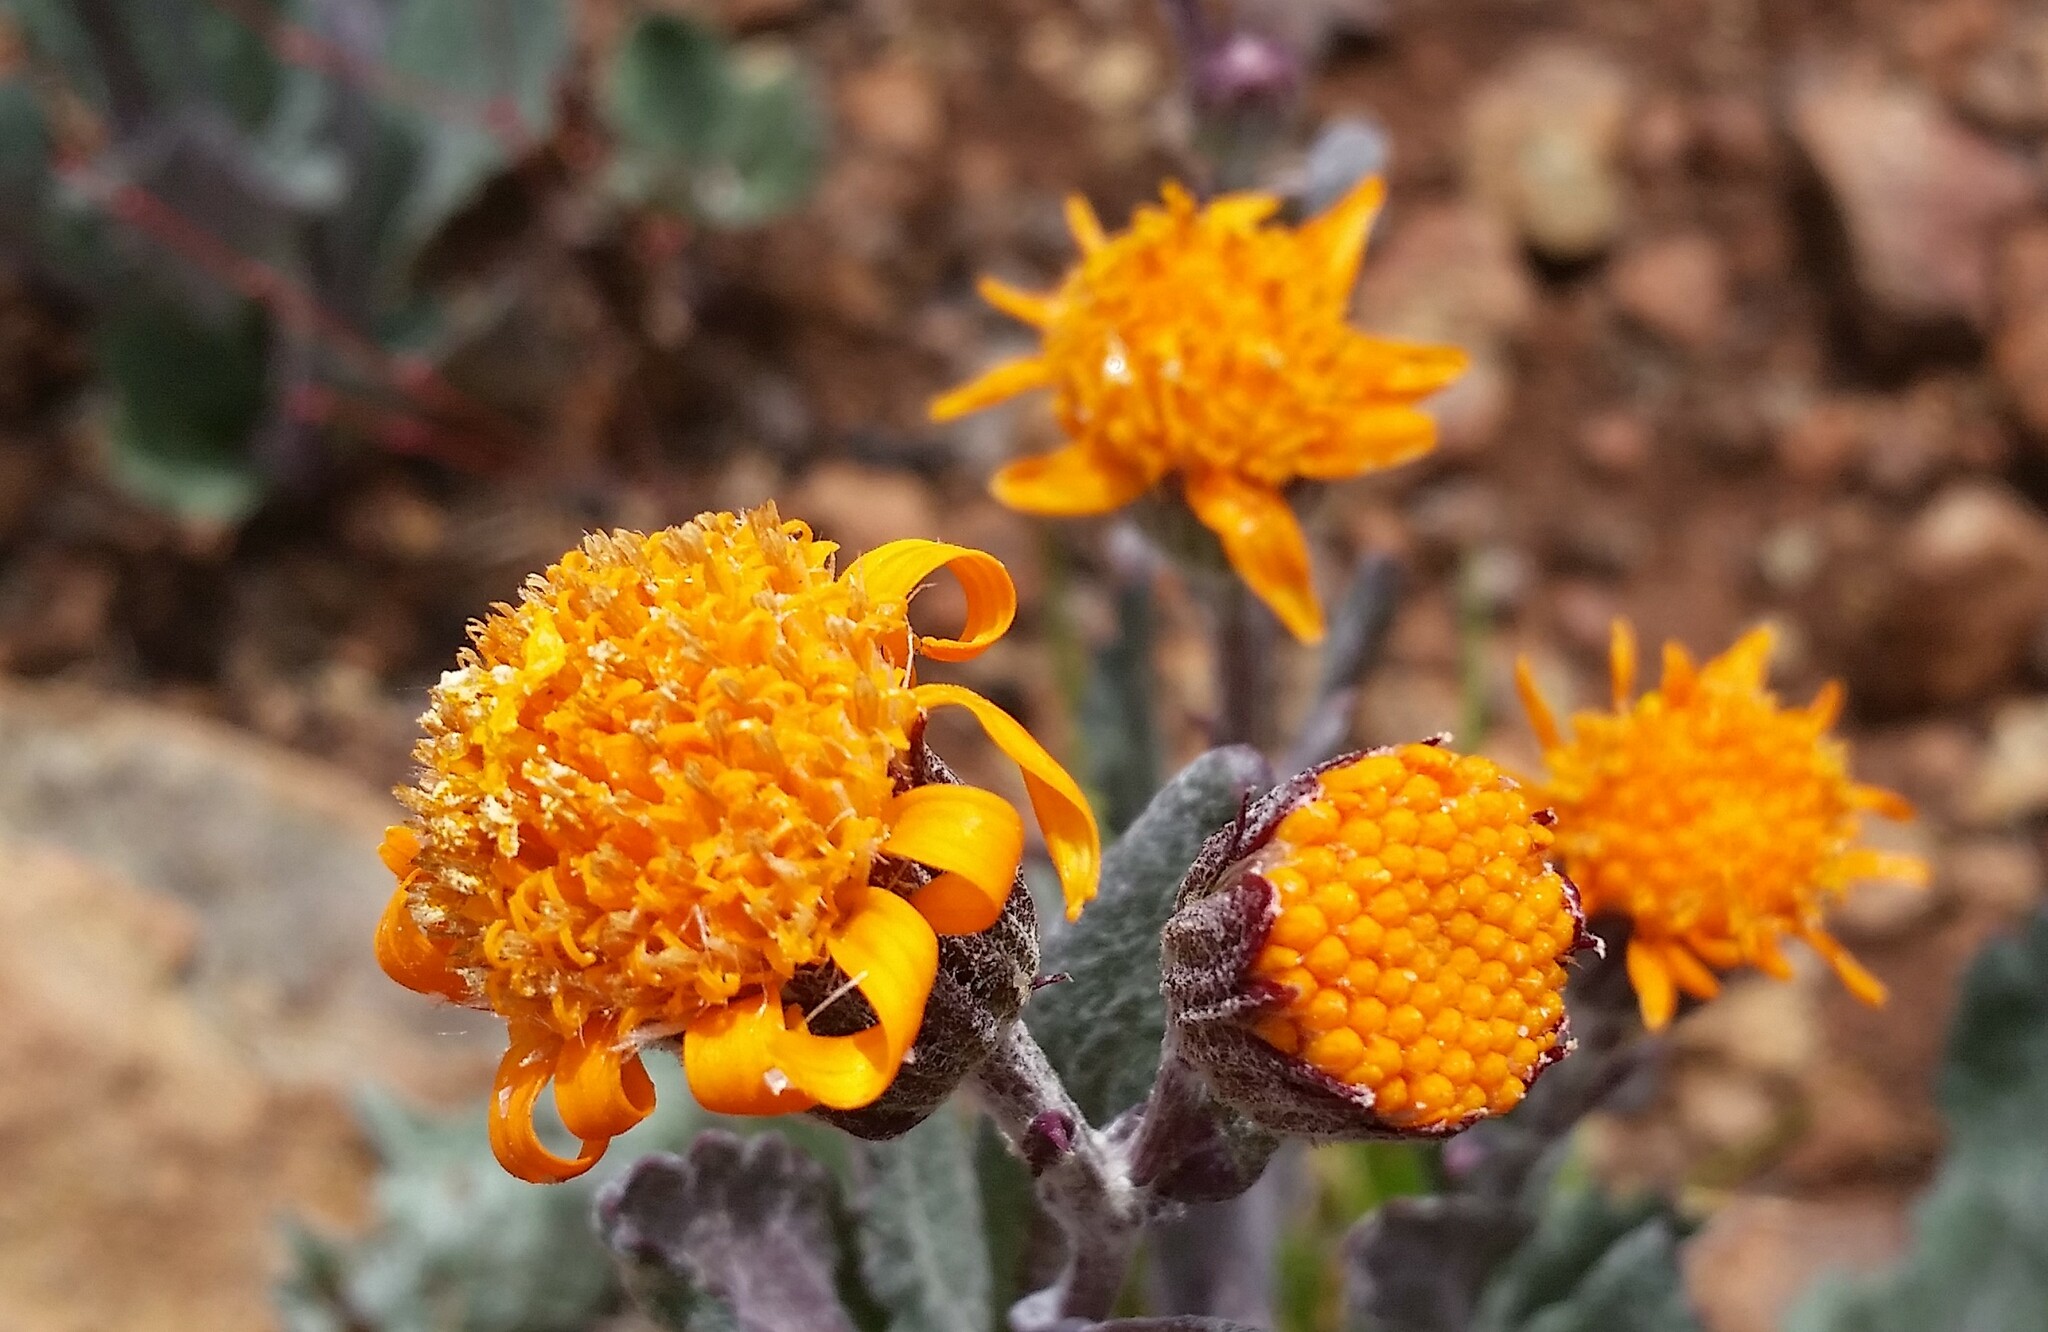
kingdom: Plantae
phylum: Tracheophyta
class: Magnoliopsida
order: Asterales
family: Asteraceae
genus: Packera
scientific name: Packera greenei
